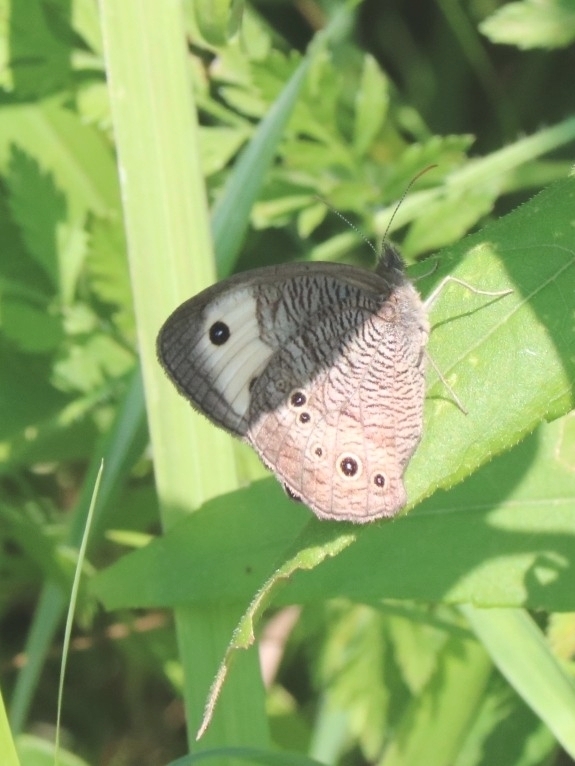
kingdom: Animalia
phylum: Arthropoda
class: Insecta
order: Lepidoptera
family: Nymphalidae
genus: Cercyonis
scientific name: Cercyonis pegala
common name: Common wood-nymph
